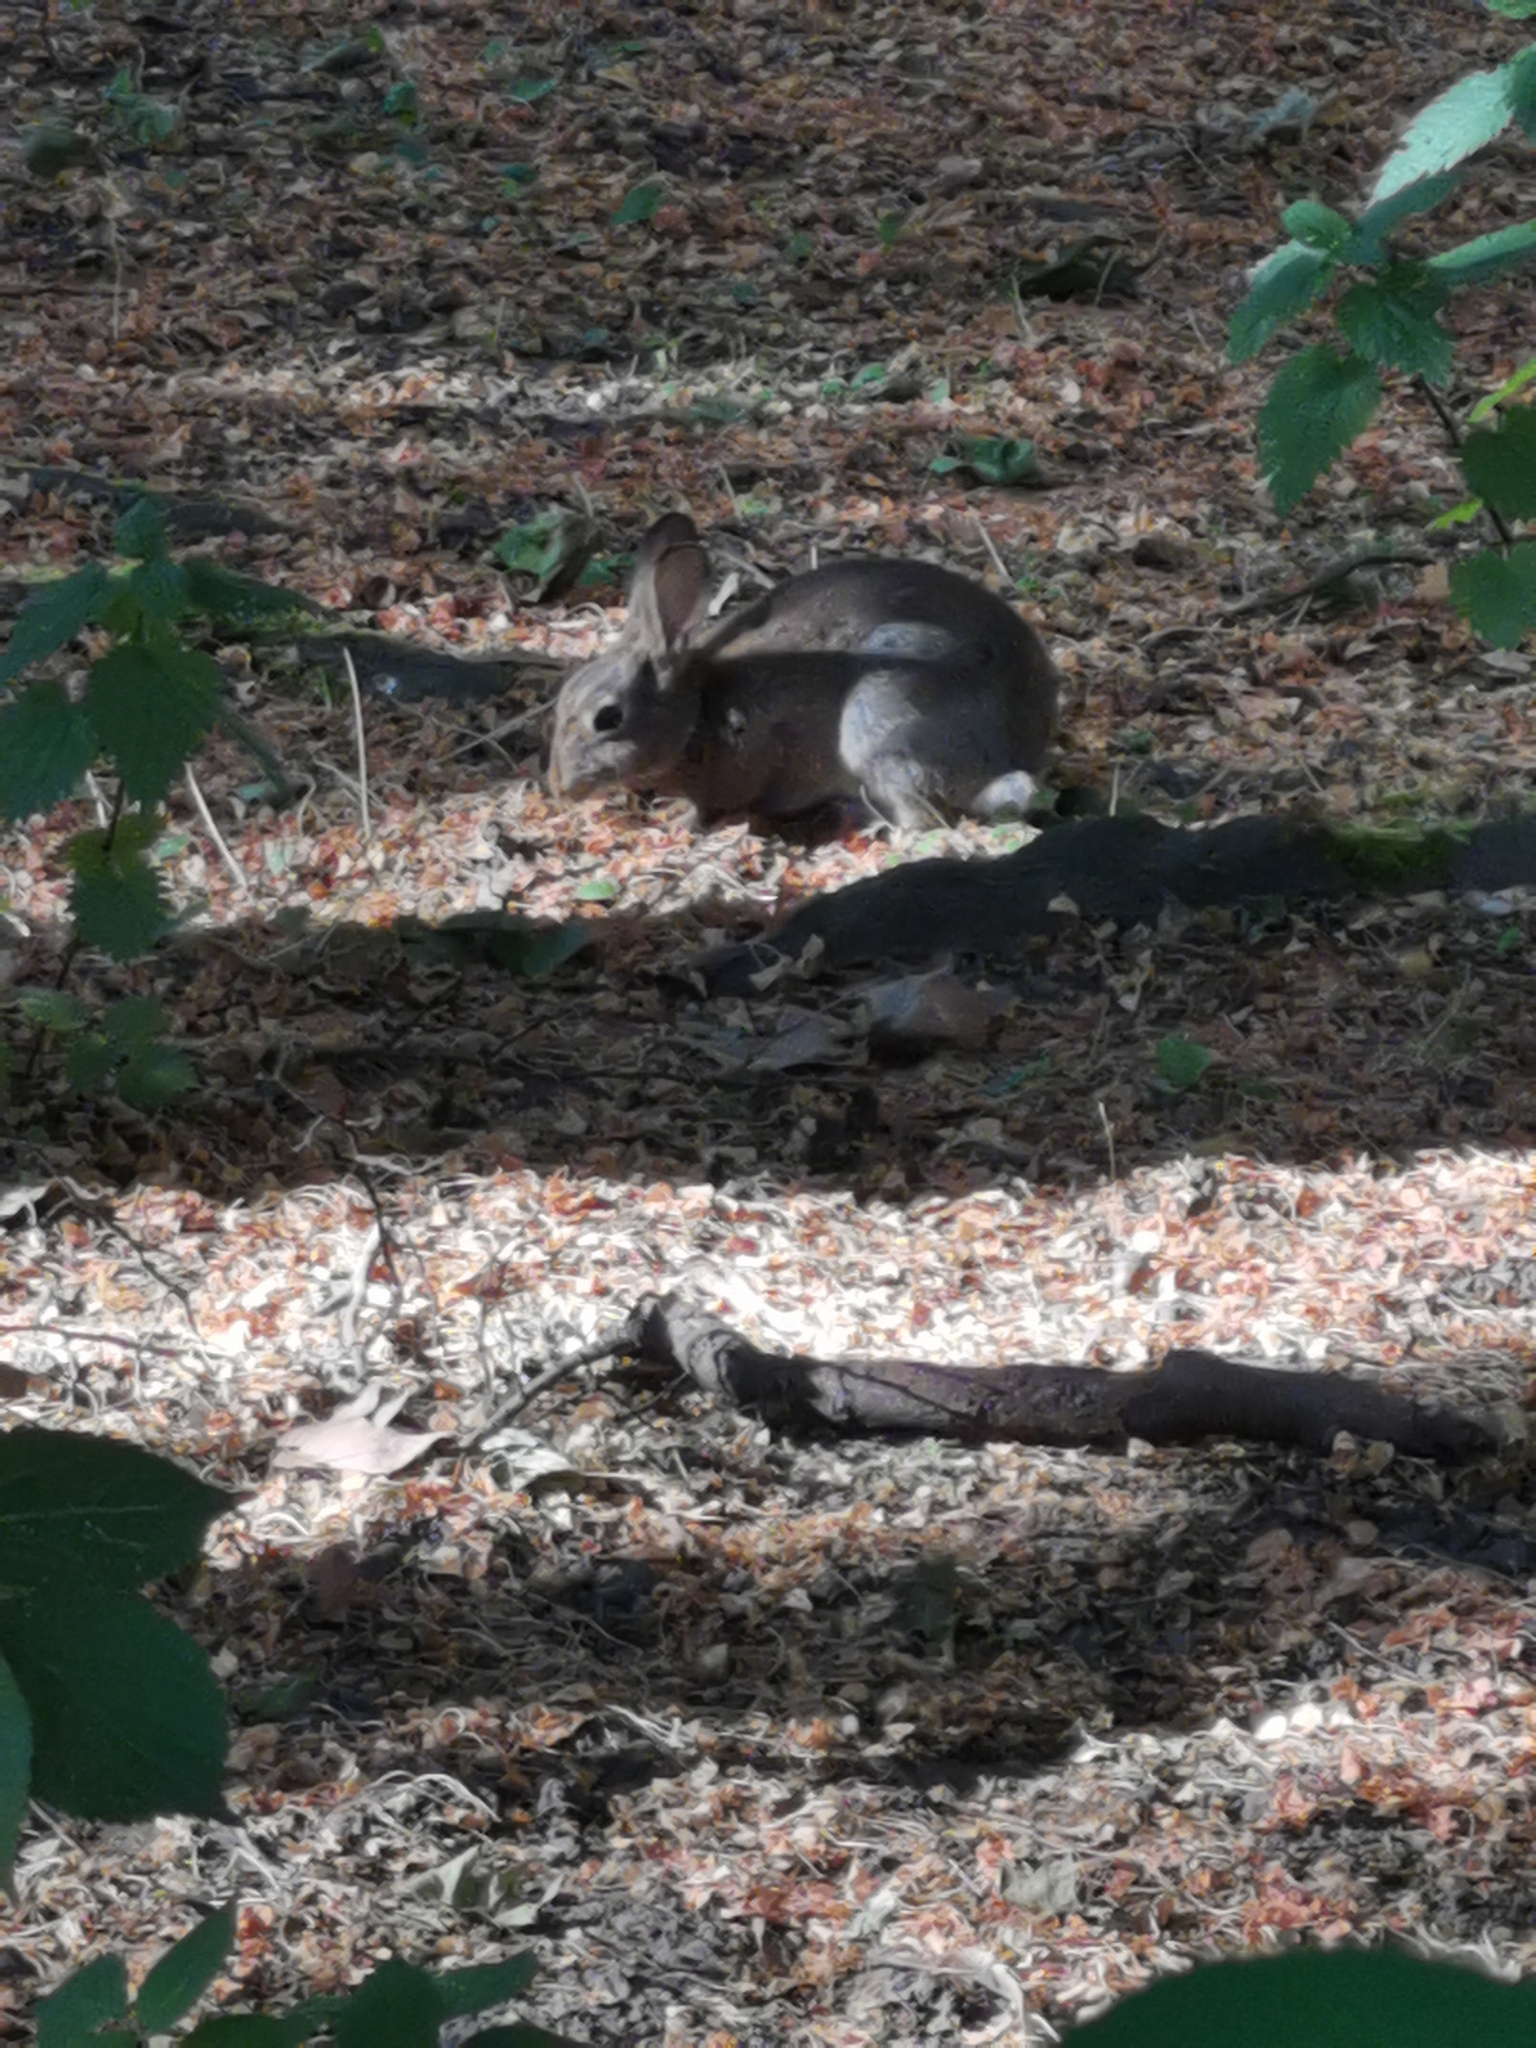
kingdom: Animalia
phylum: Chordata
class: Mammalia
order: Lagomorpha
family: Leporidae
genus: Oryctolagus
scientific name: Oryctolagus cuniculus
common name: European rabbit
